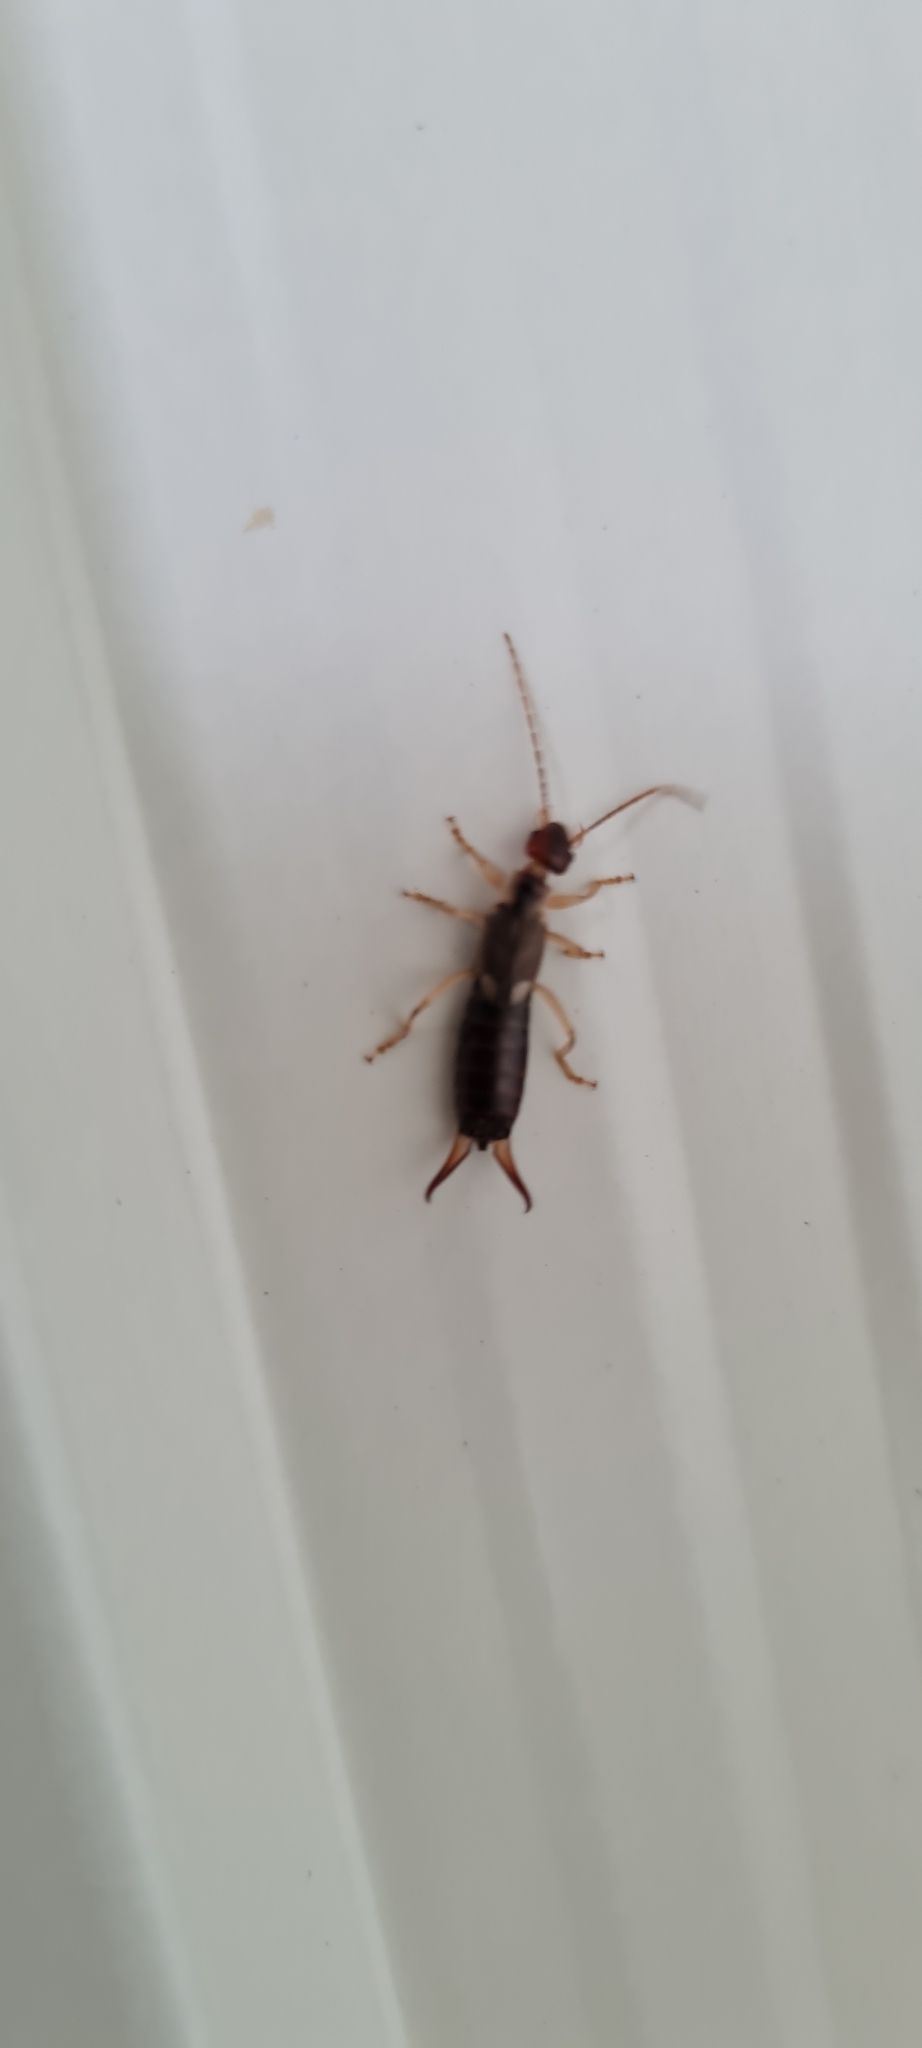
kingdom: Animalia
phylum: Arthropoda
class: Insecta
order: Dermaptera
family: Forficulidae
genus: Forficula
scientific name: Forficula
